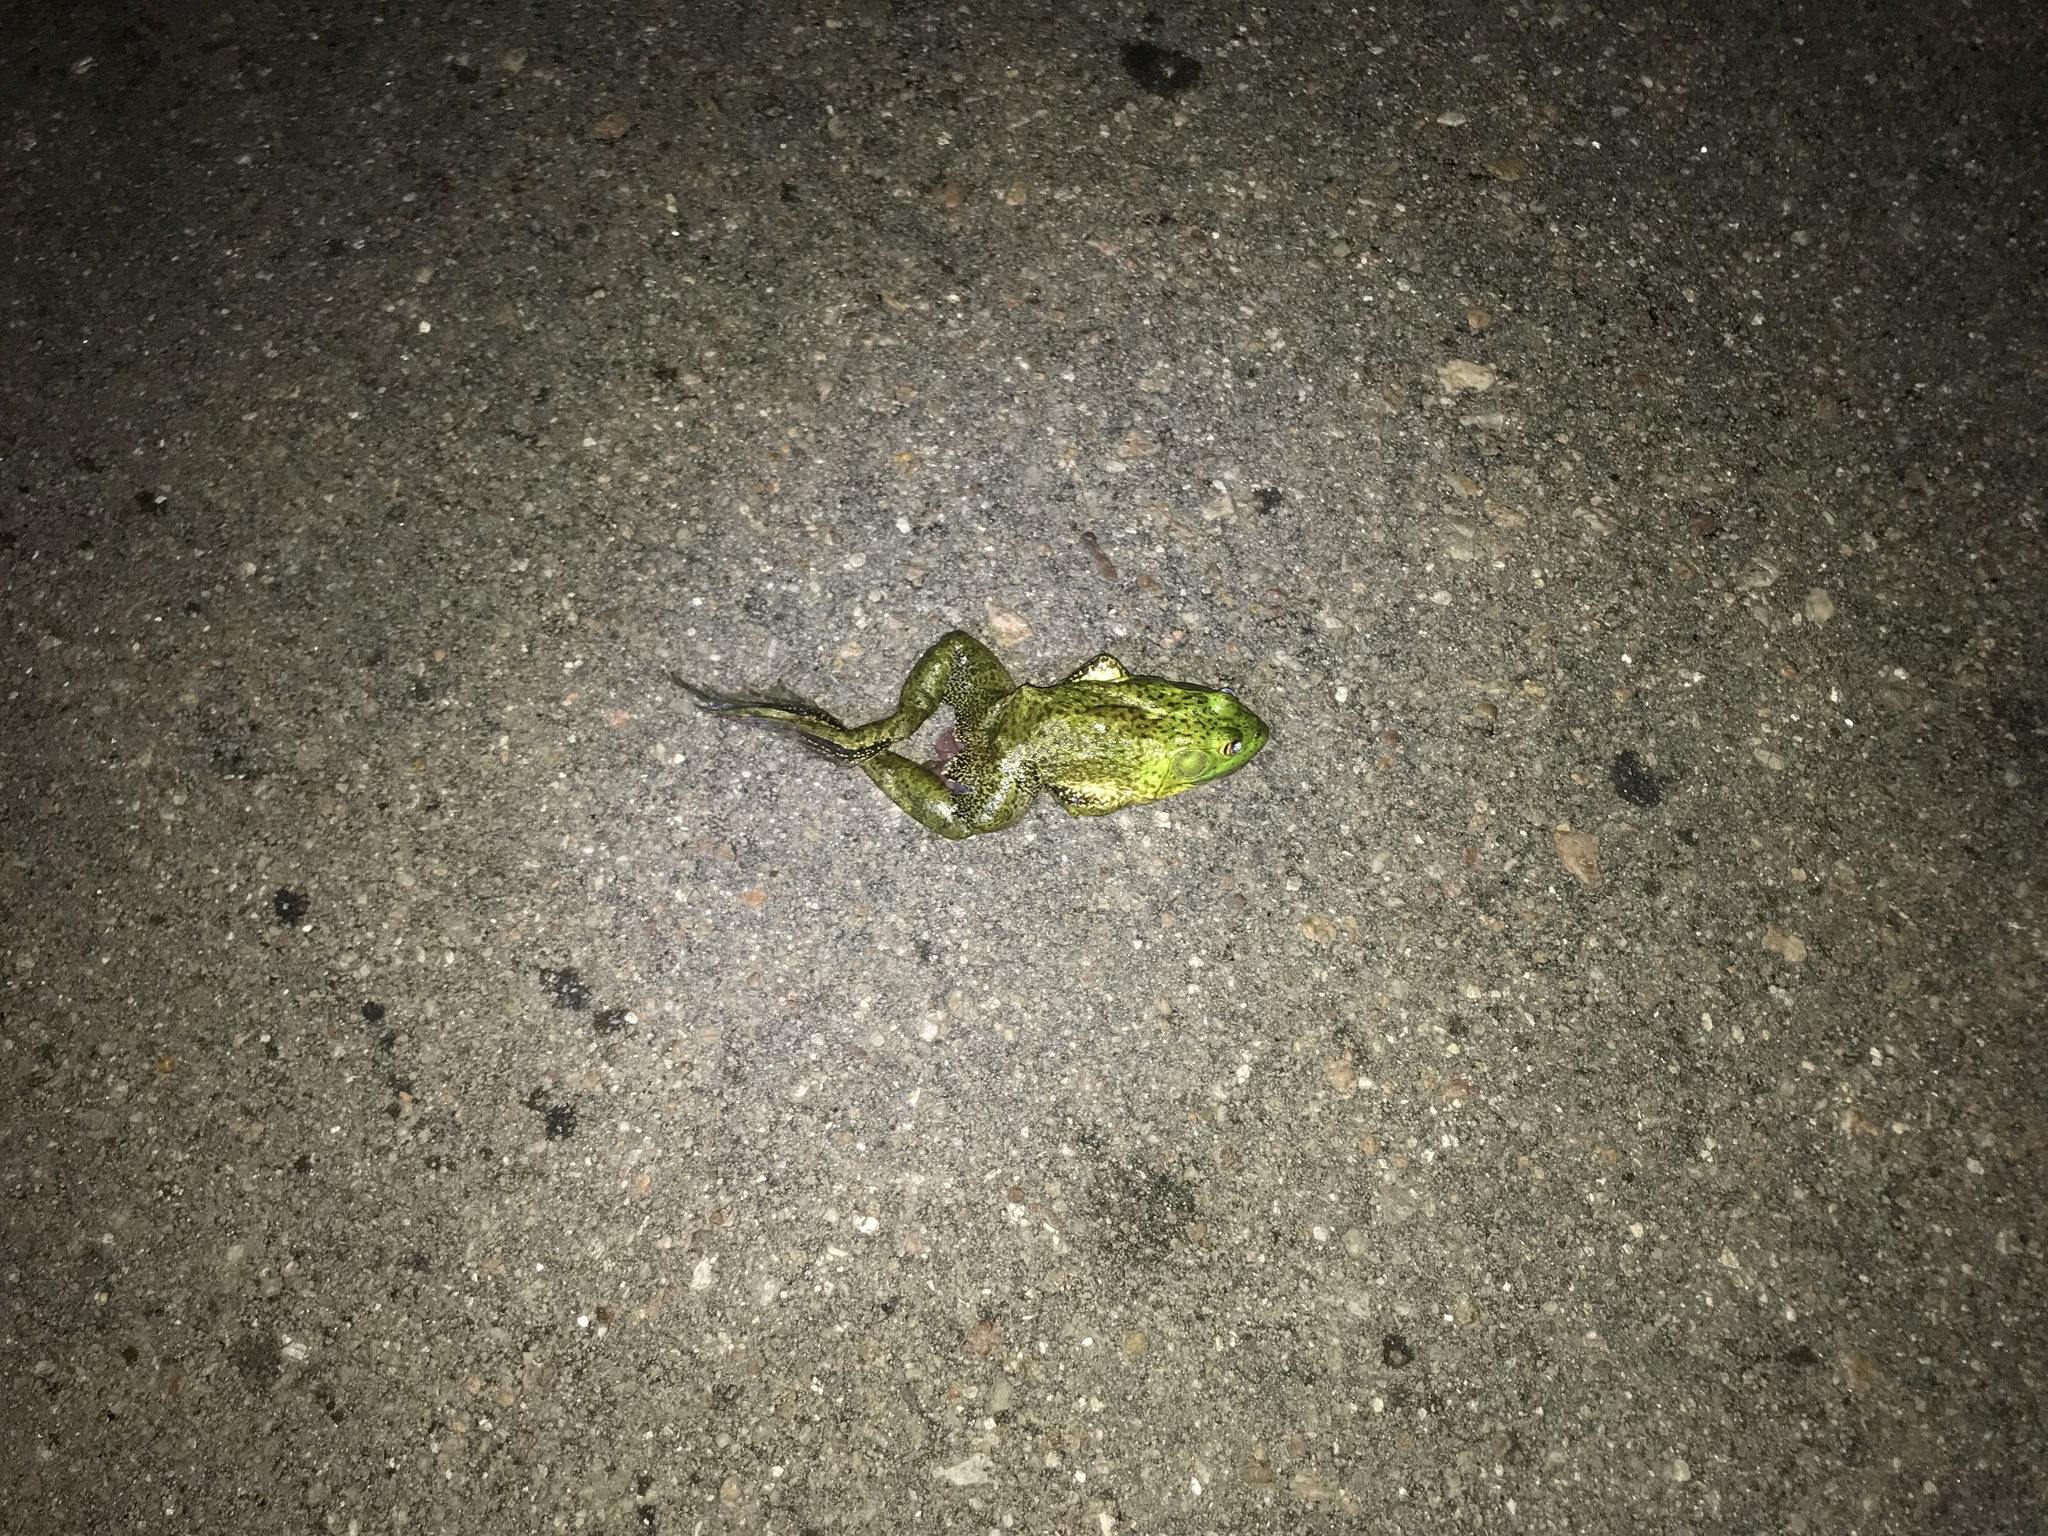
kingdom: Animalia
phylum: Chordata
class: Amphibia
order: Anura
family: Ranidae
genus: Lithobates
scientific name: Lithobates catesbeianus
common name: American bullfrog
